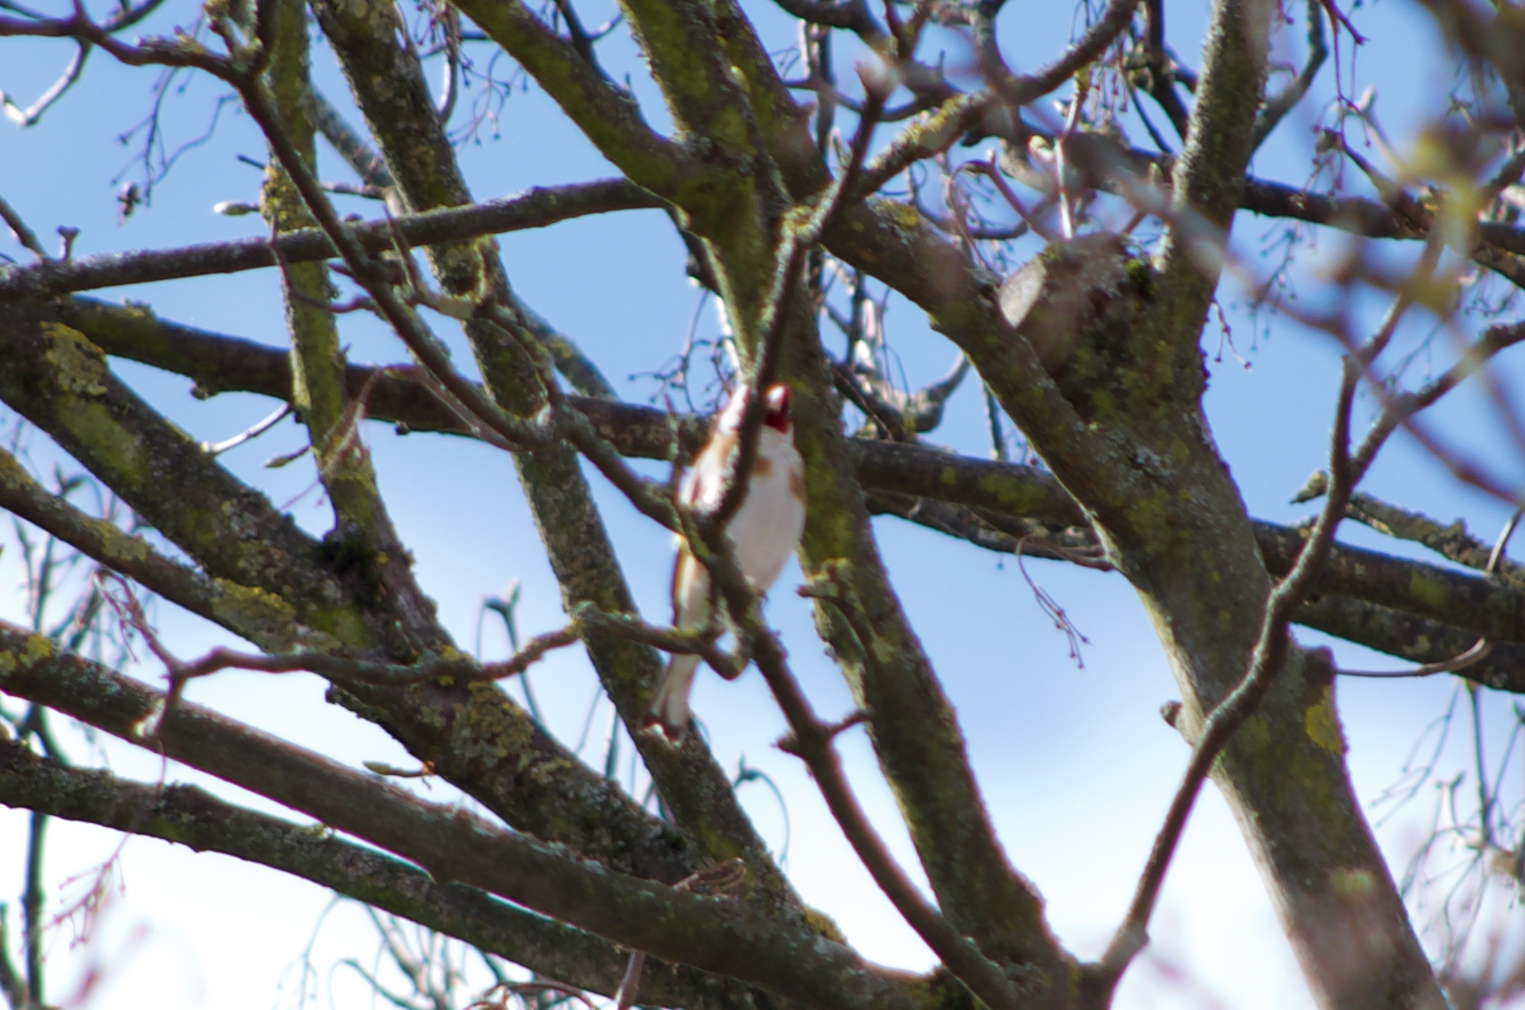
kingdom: Animalia
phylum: Chordata
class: Aves
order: Passeriformes
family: Fringillidae
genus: Carduelis
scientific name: Carduelis carduelis
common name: European goldfinch
